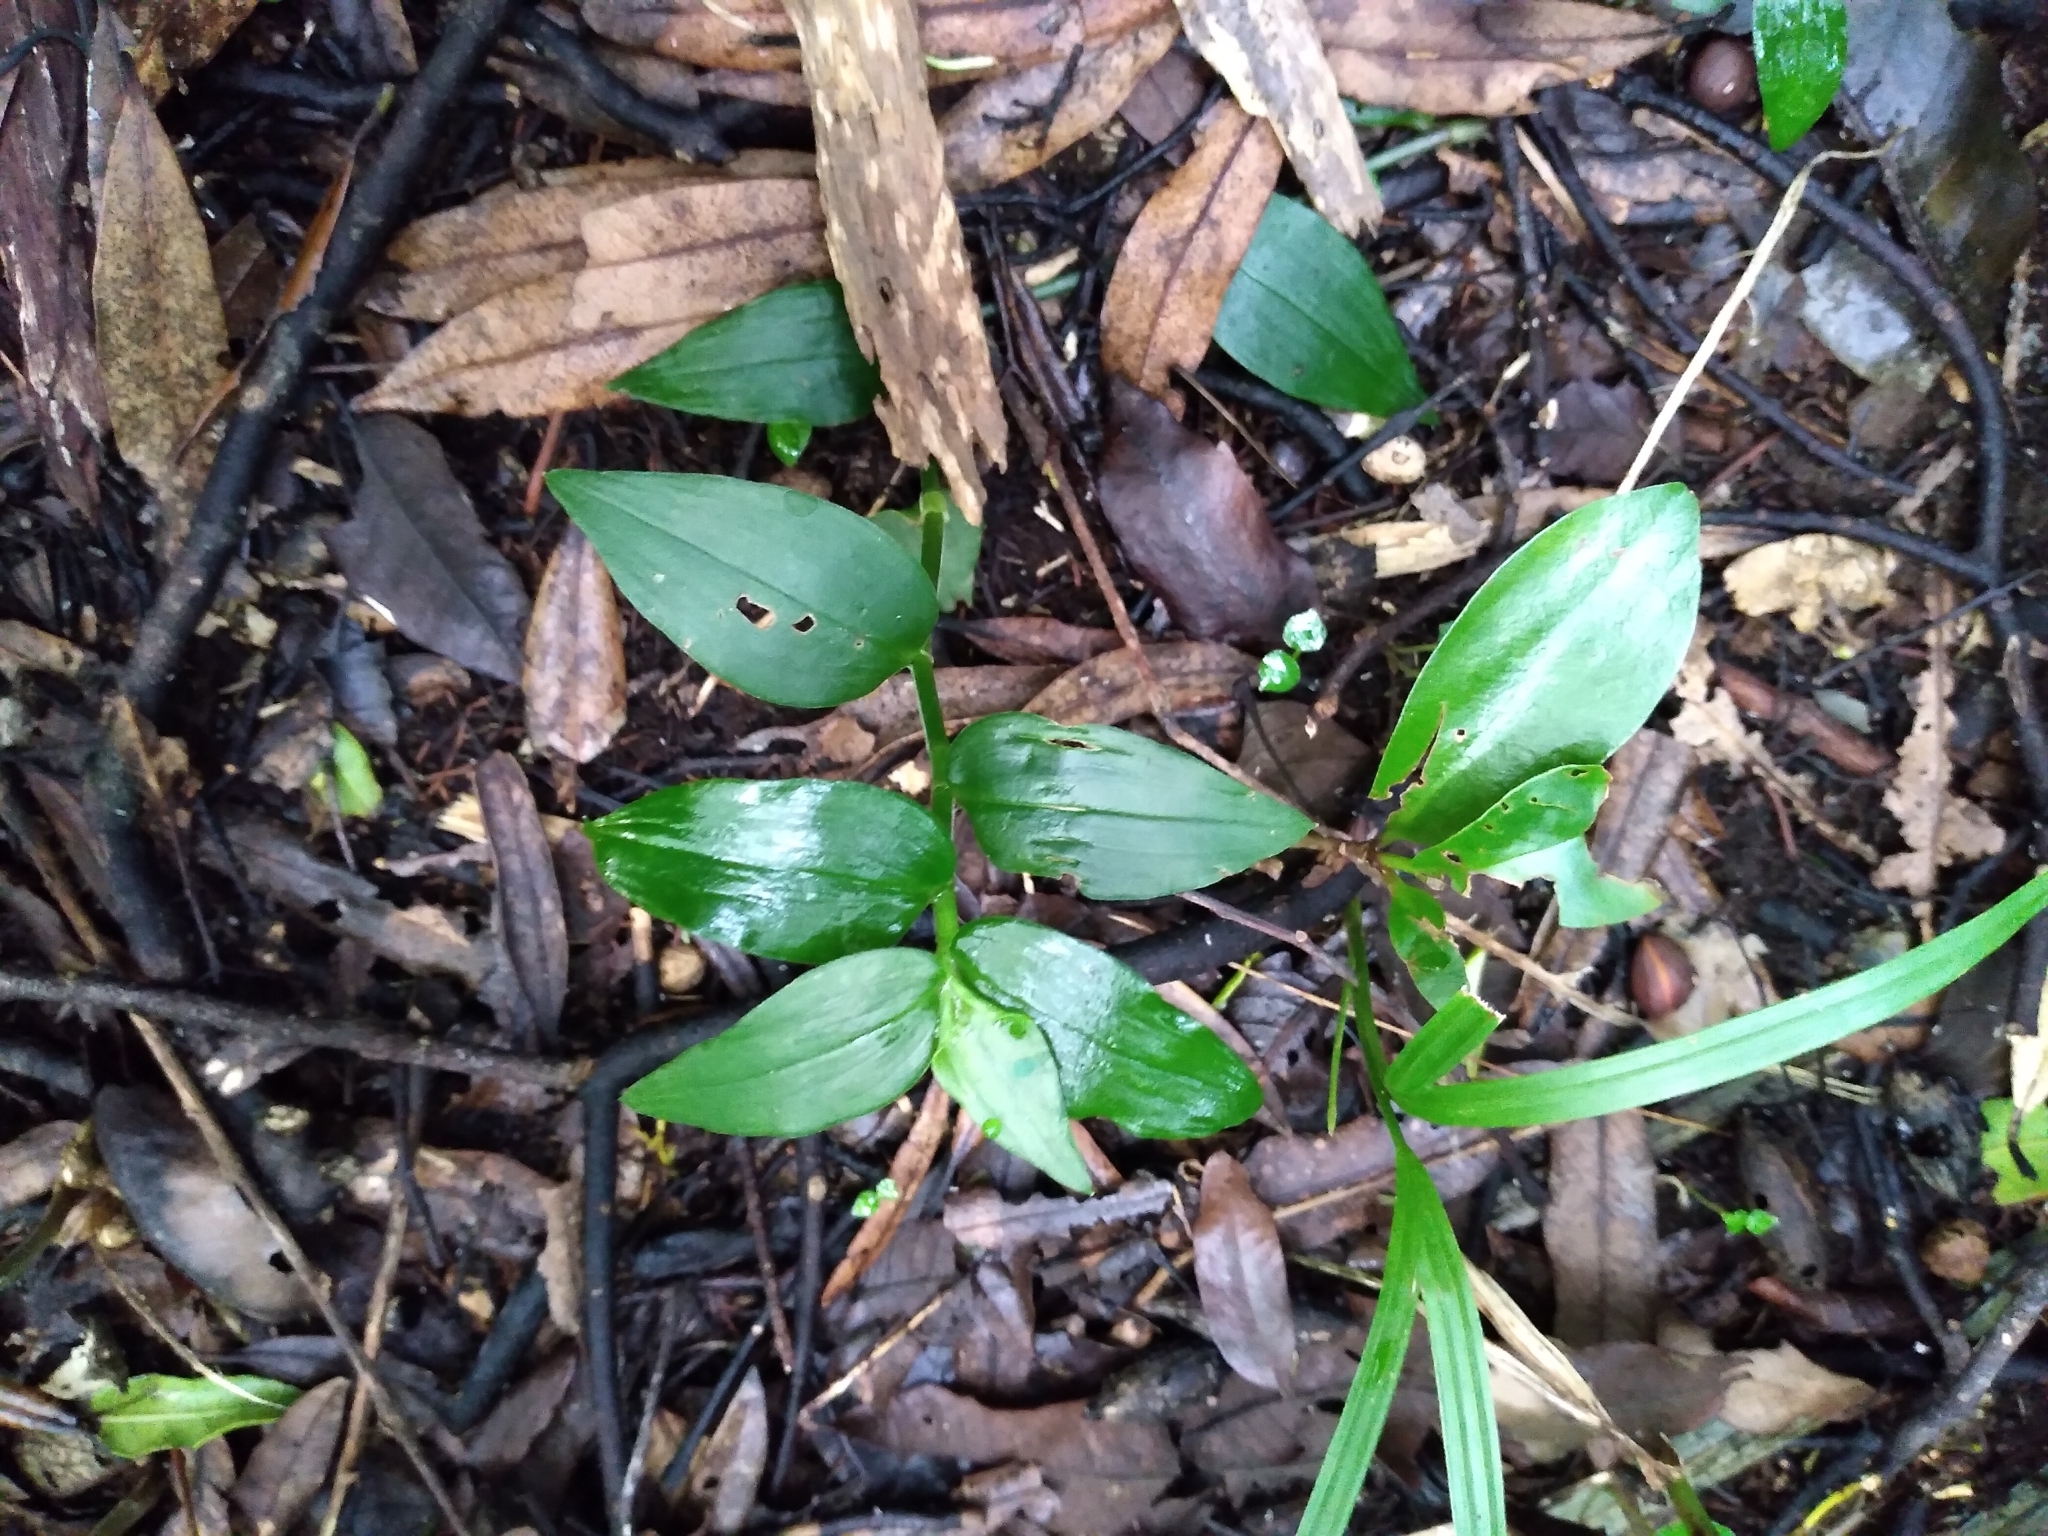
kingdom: Plantae
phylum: Tracheophyta
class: Liliopsida
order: Commelinales
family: Commelinaceae
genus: Tradescantia
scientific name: Tradescantia fluminensis
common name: Wandering-jew
